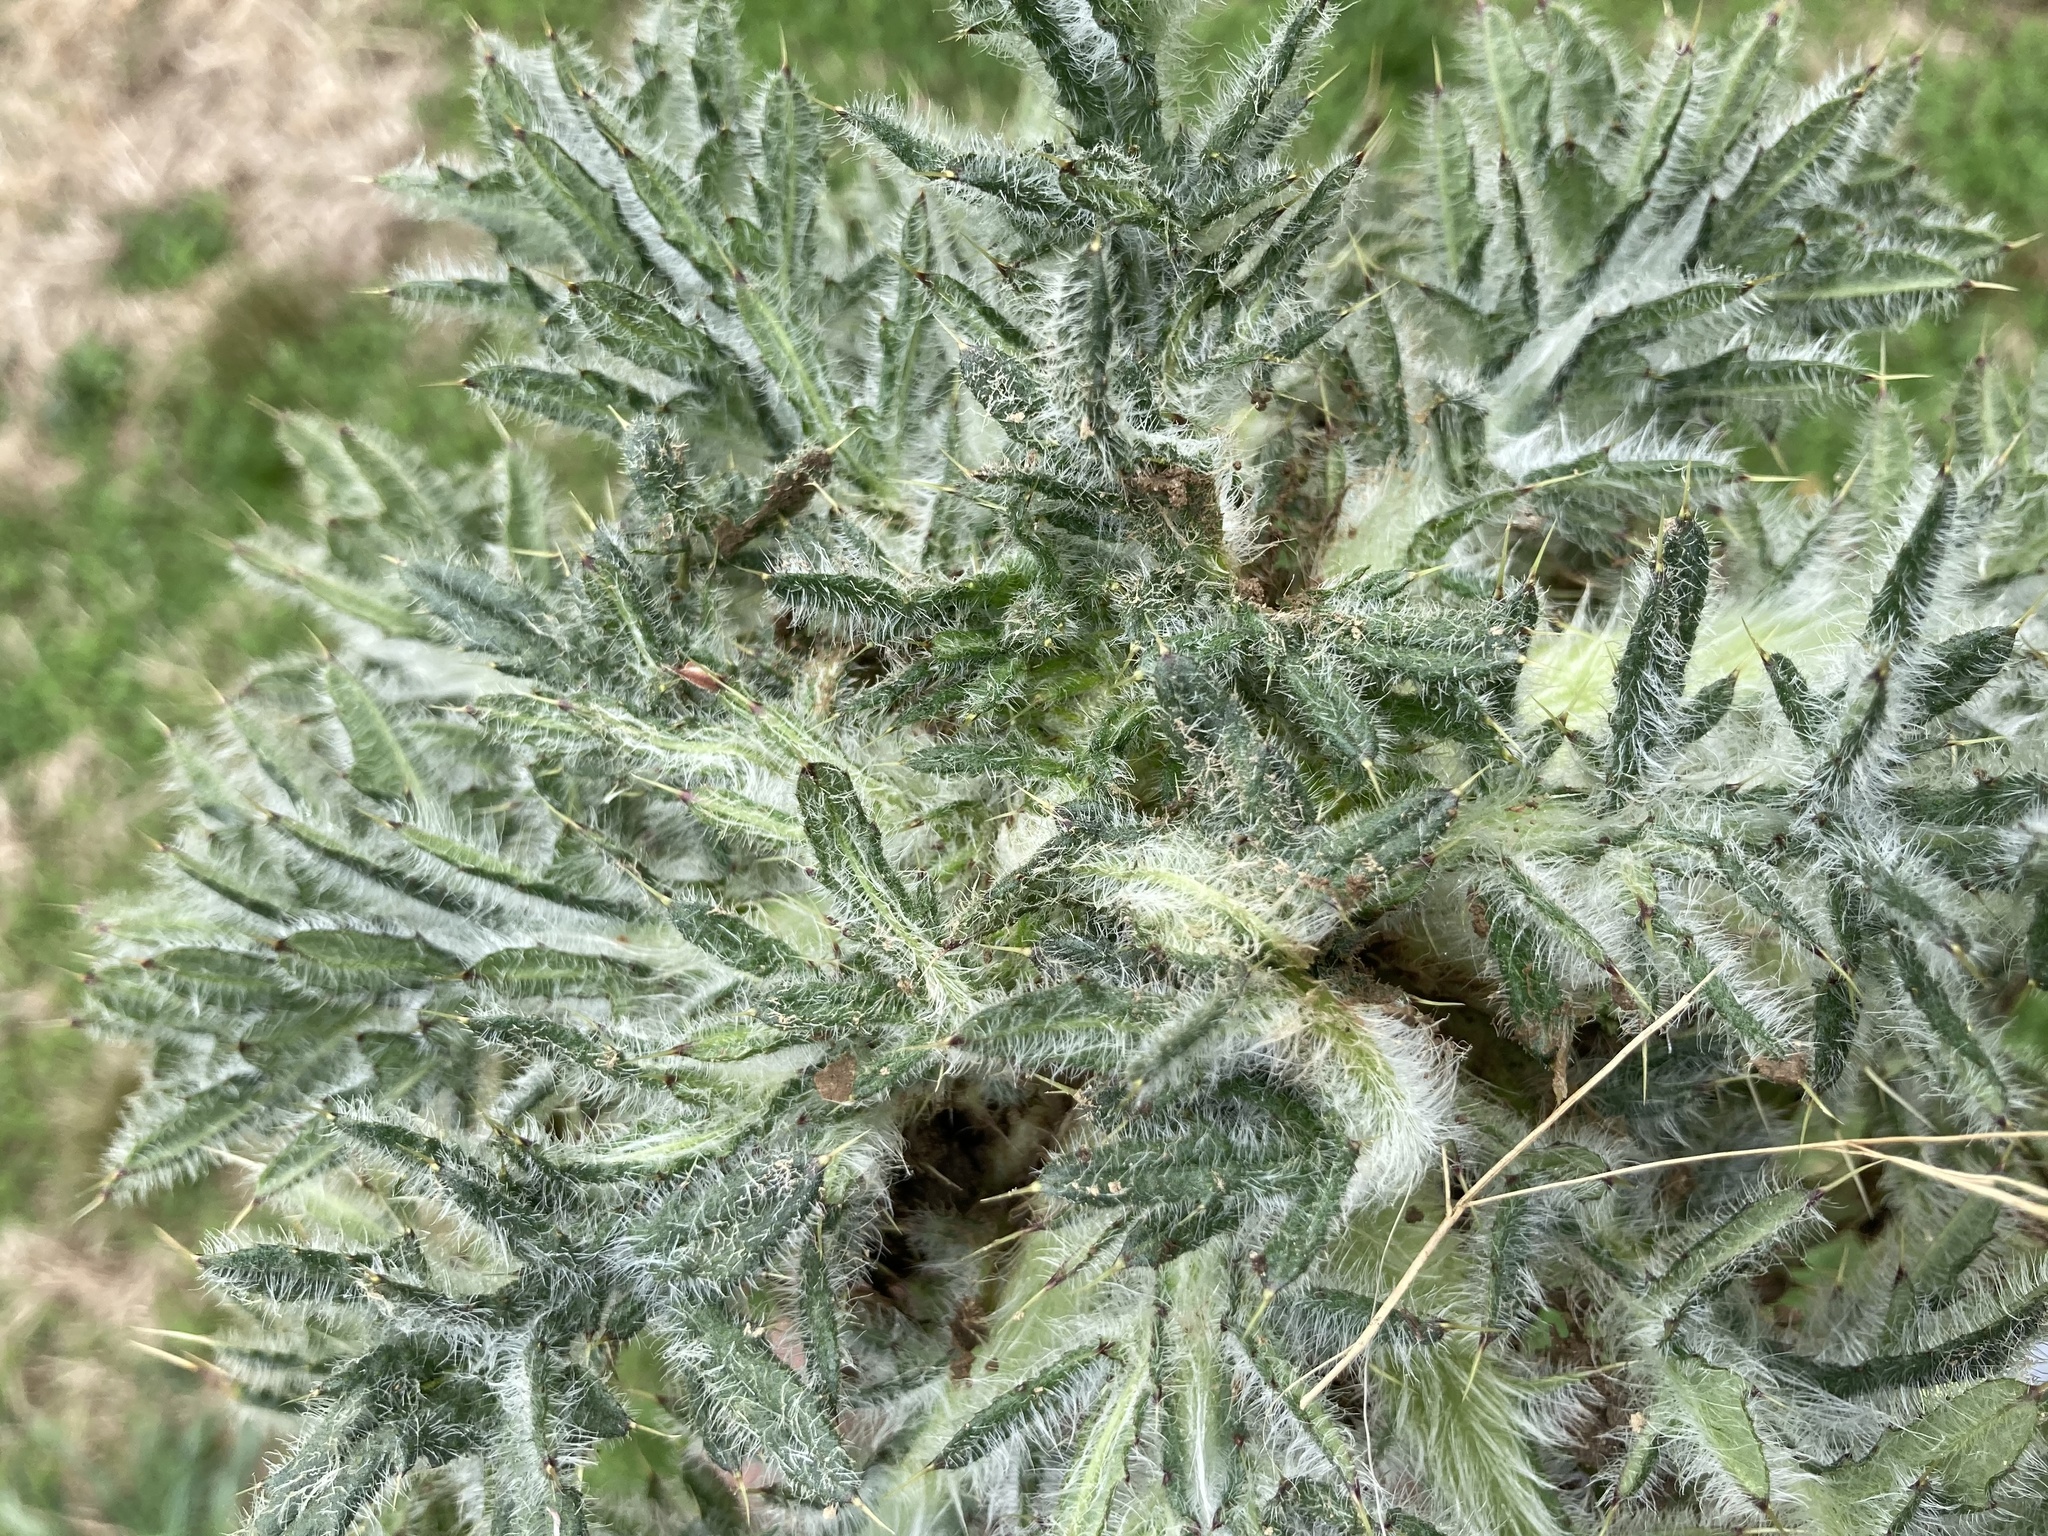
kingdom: Plantae
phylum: Tracheophyta
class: Magnoliopsida
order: Asterales
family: Asteraceae
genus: Cirsium
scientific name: Cirsium vulgare
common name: Bull thistle
